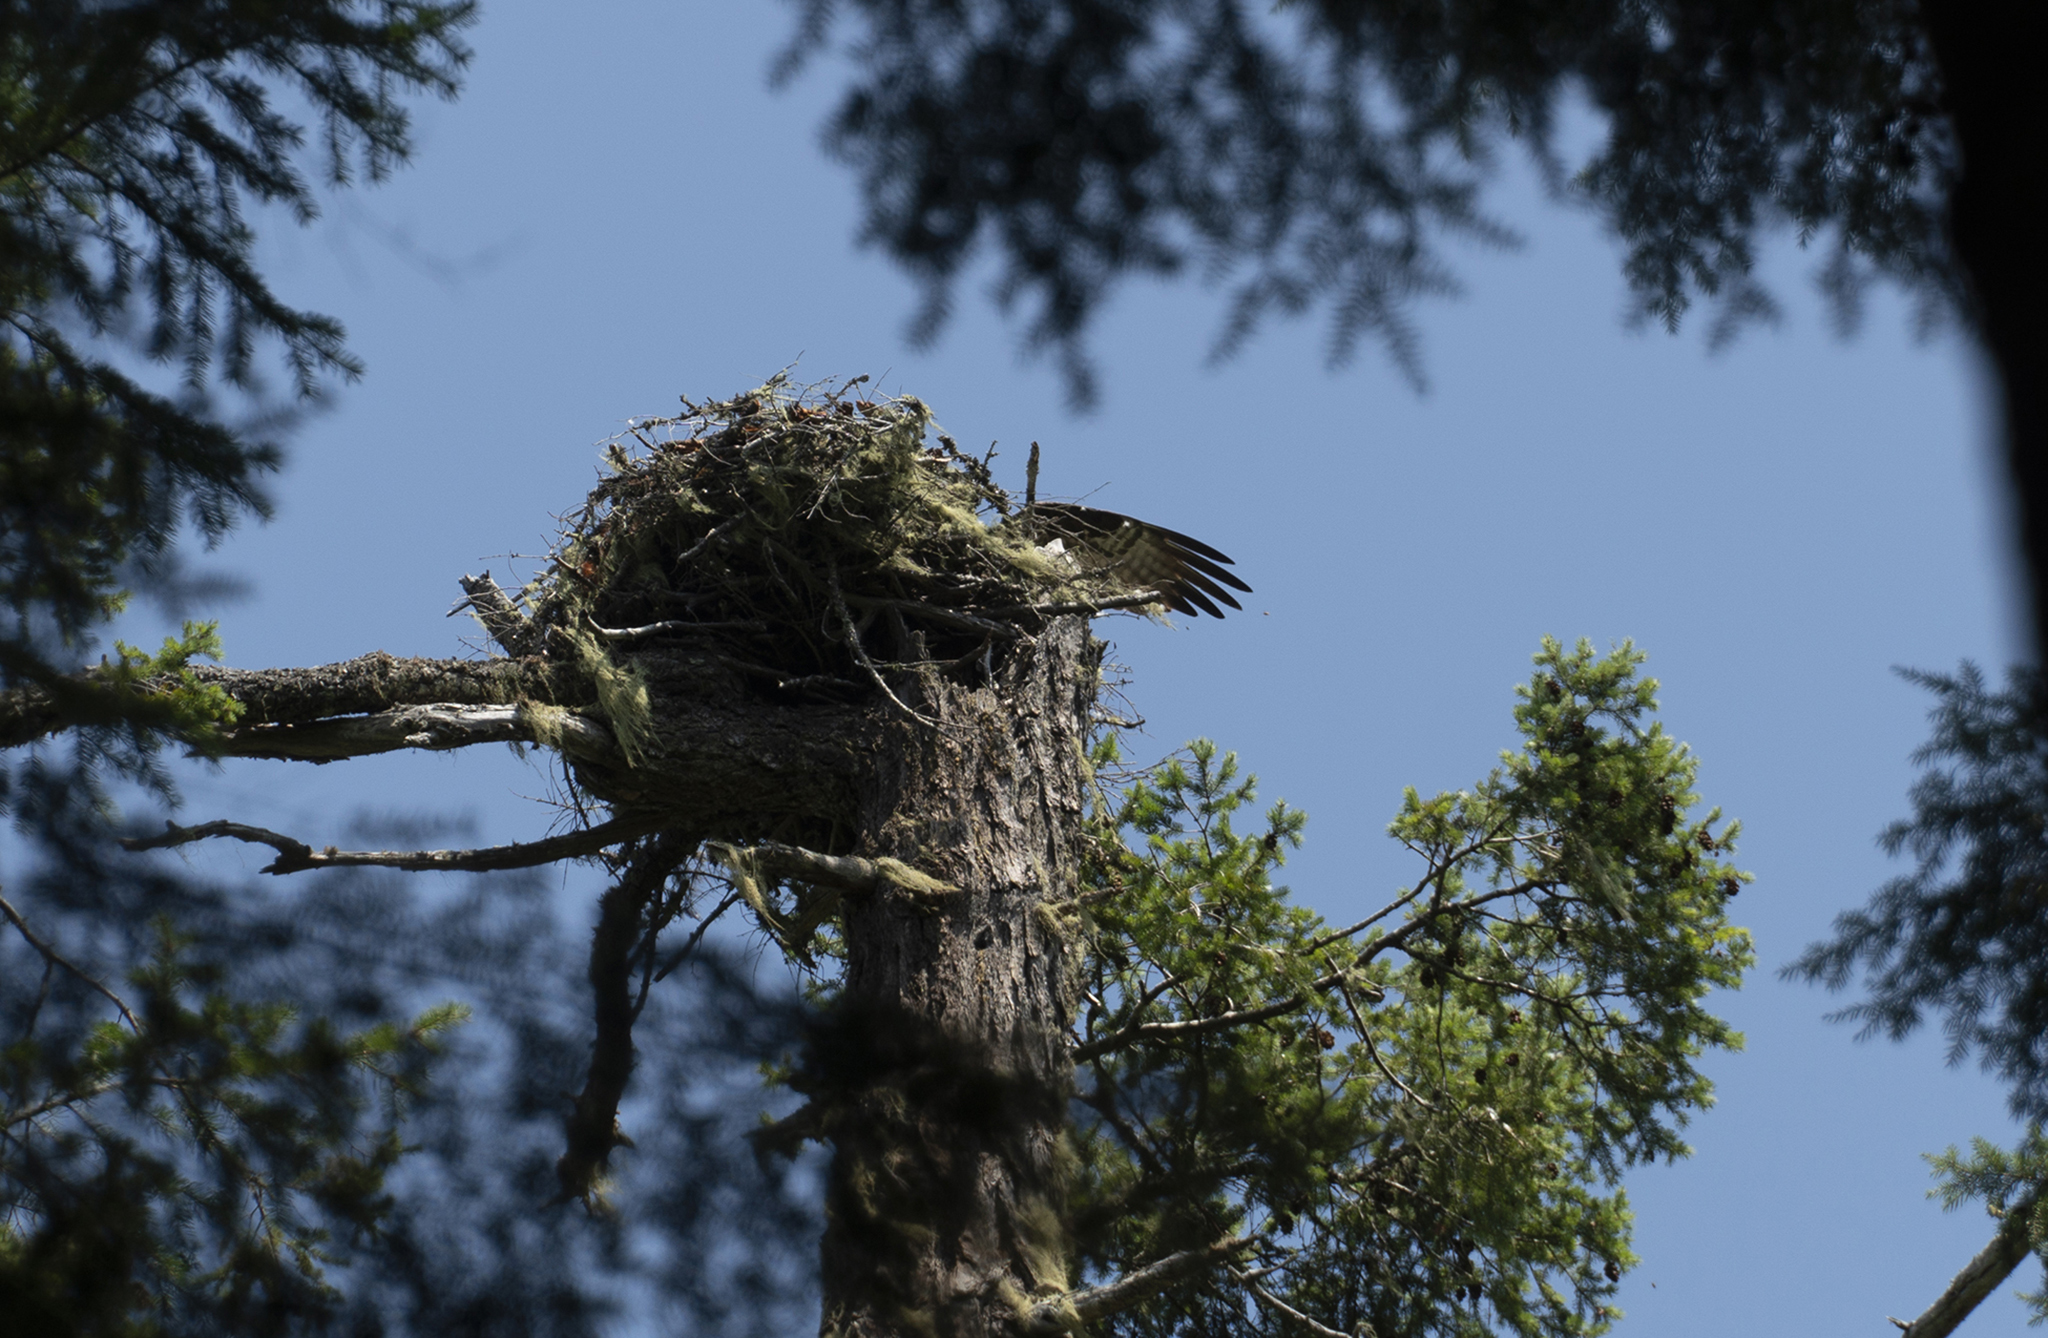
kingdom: Animalia
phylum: Chordata
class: Aves
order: Accipitriformes
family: Pandionidae
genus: Pandion
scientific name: Pandion haliaetus
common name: Osprey
